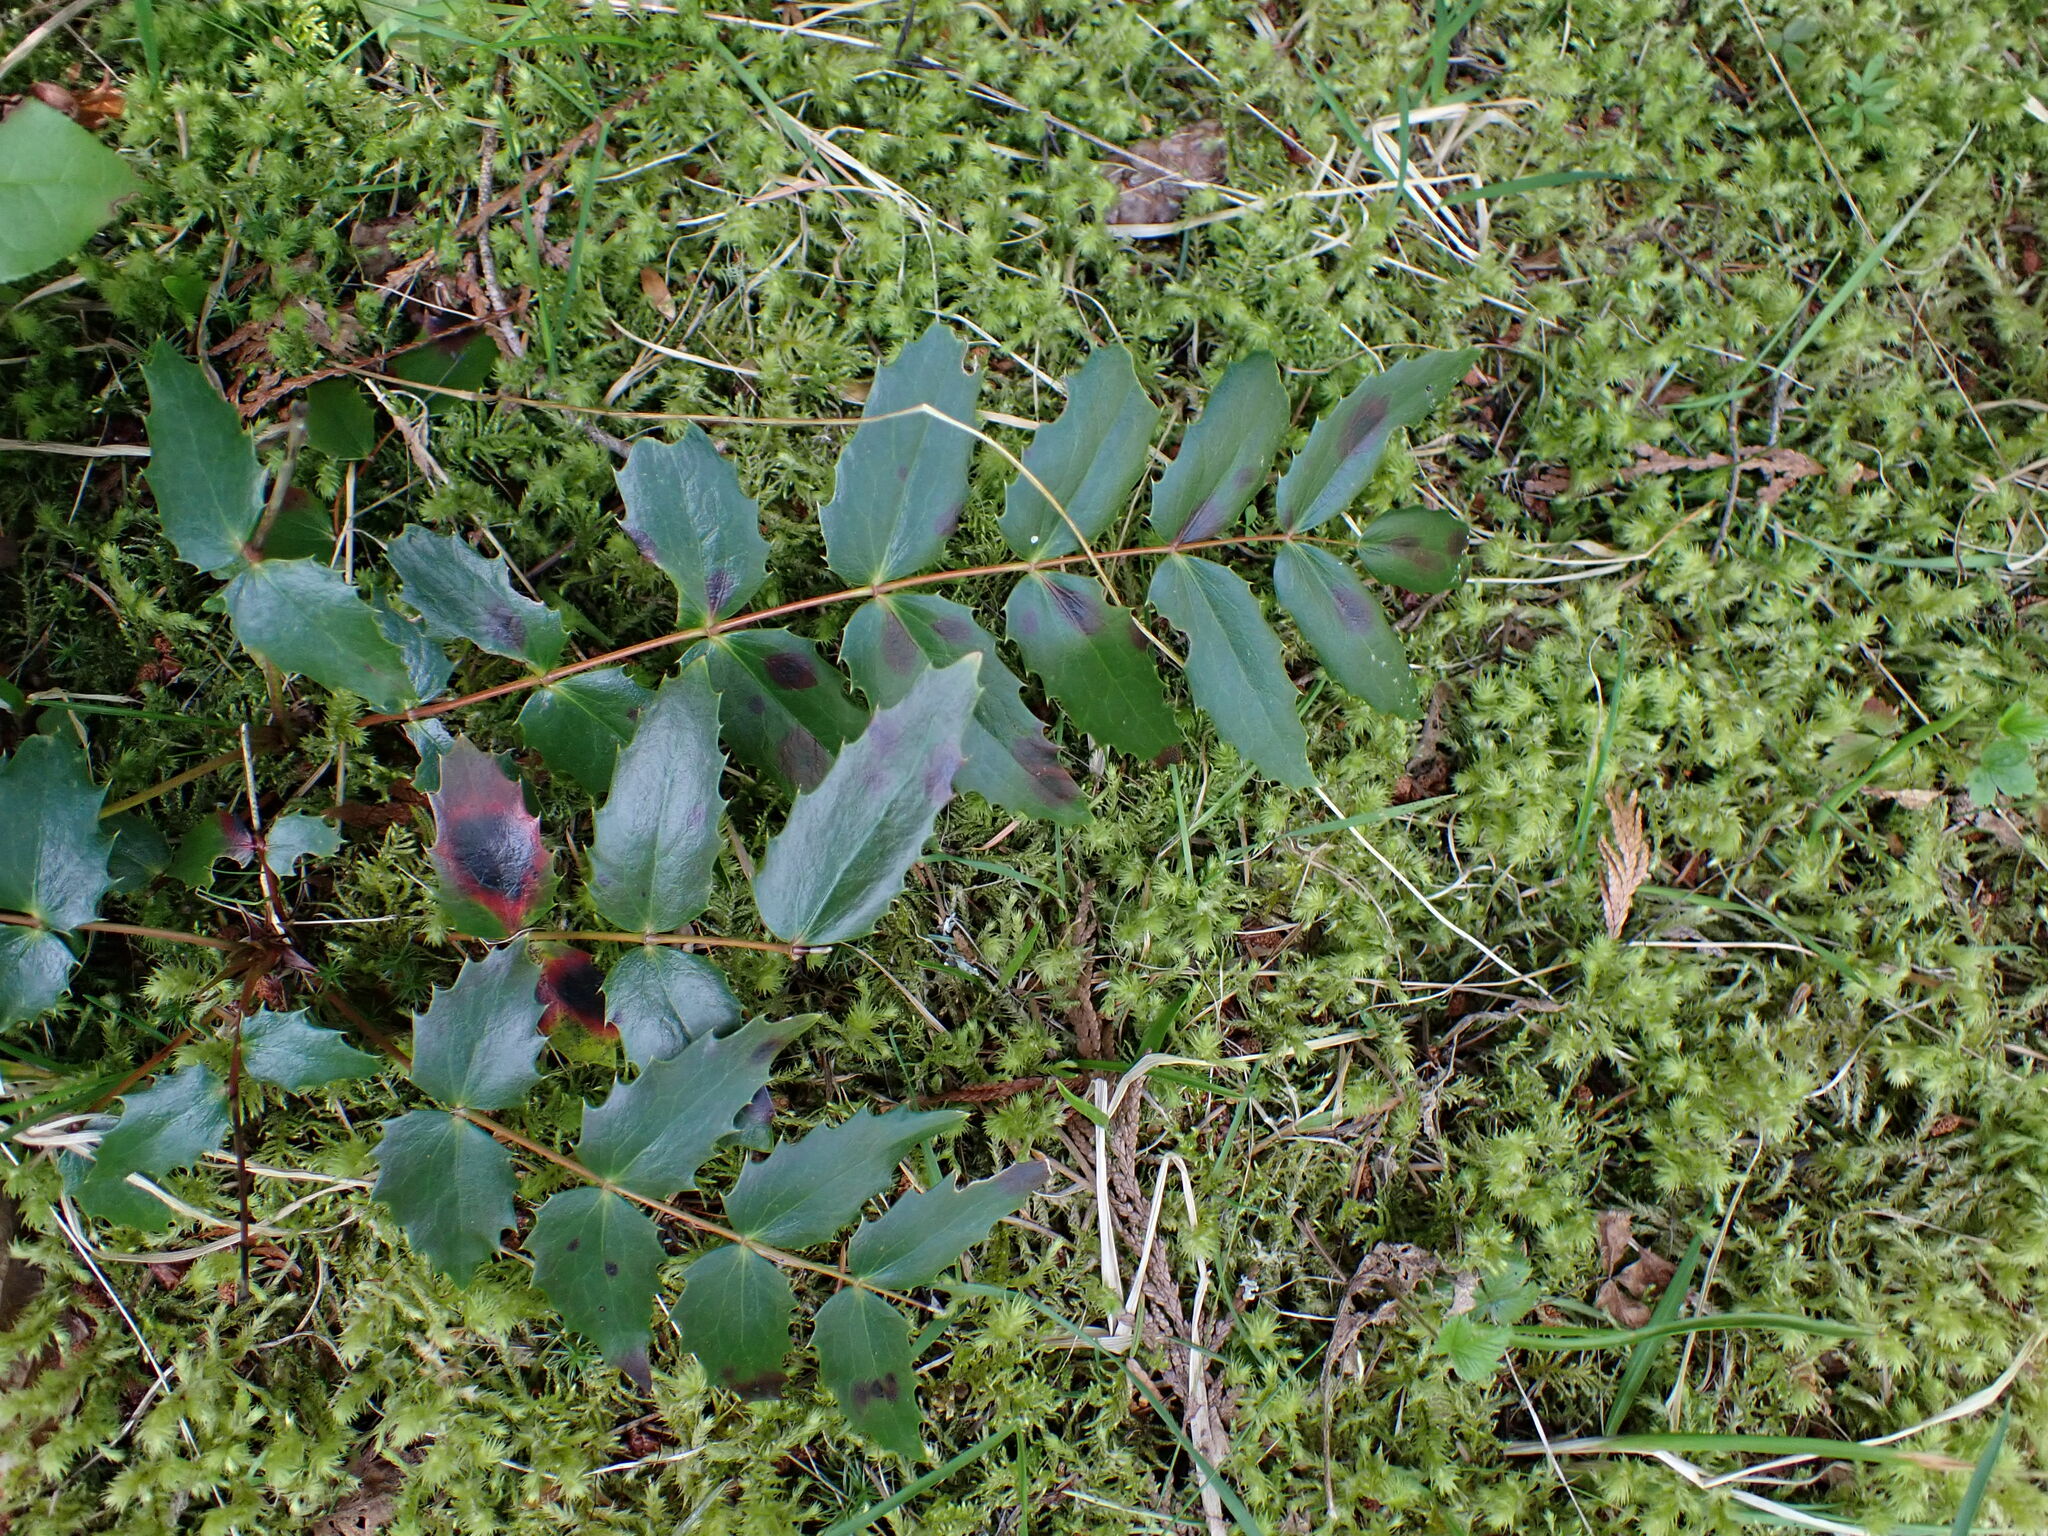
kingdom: Plantae
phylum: Tracheophyta
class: Magnoliopsida
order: Ranunculales
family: Berberidaceae
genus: Mahonia
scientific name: Mahonia nervosa
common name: Cascade oregon-grape
